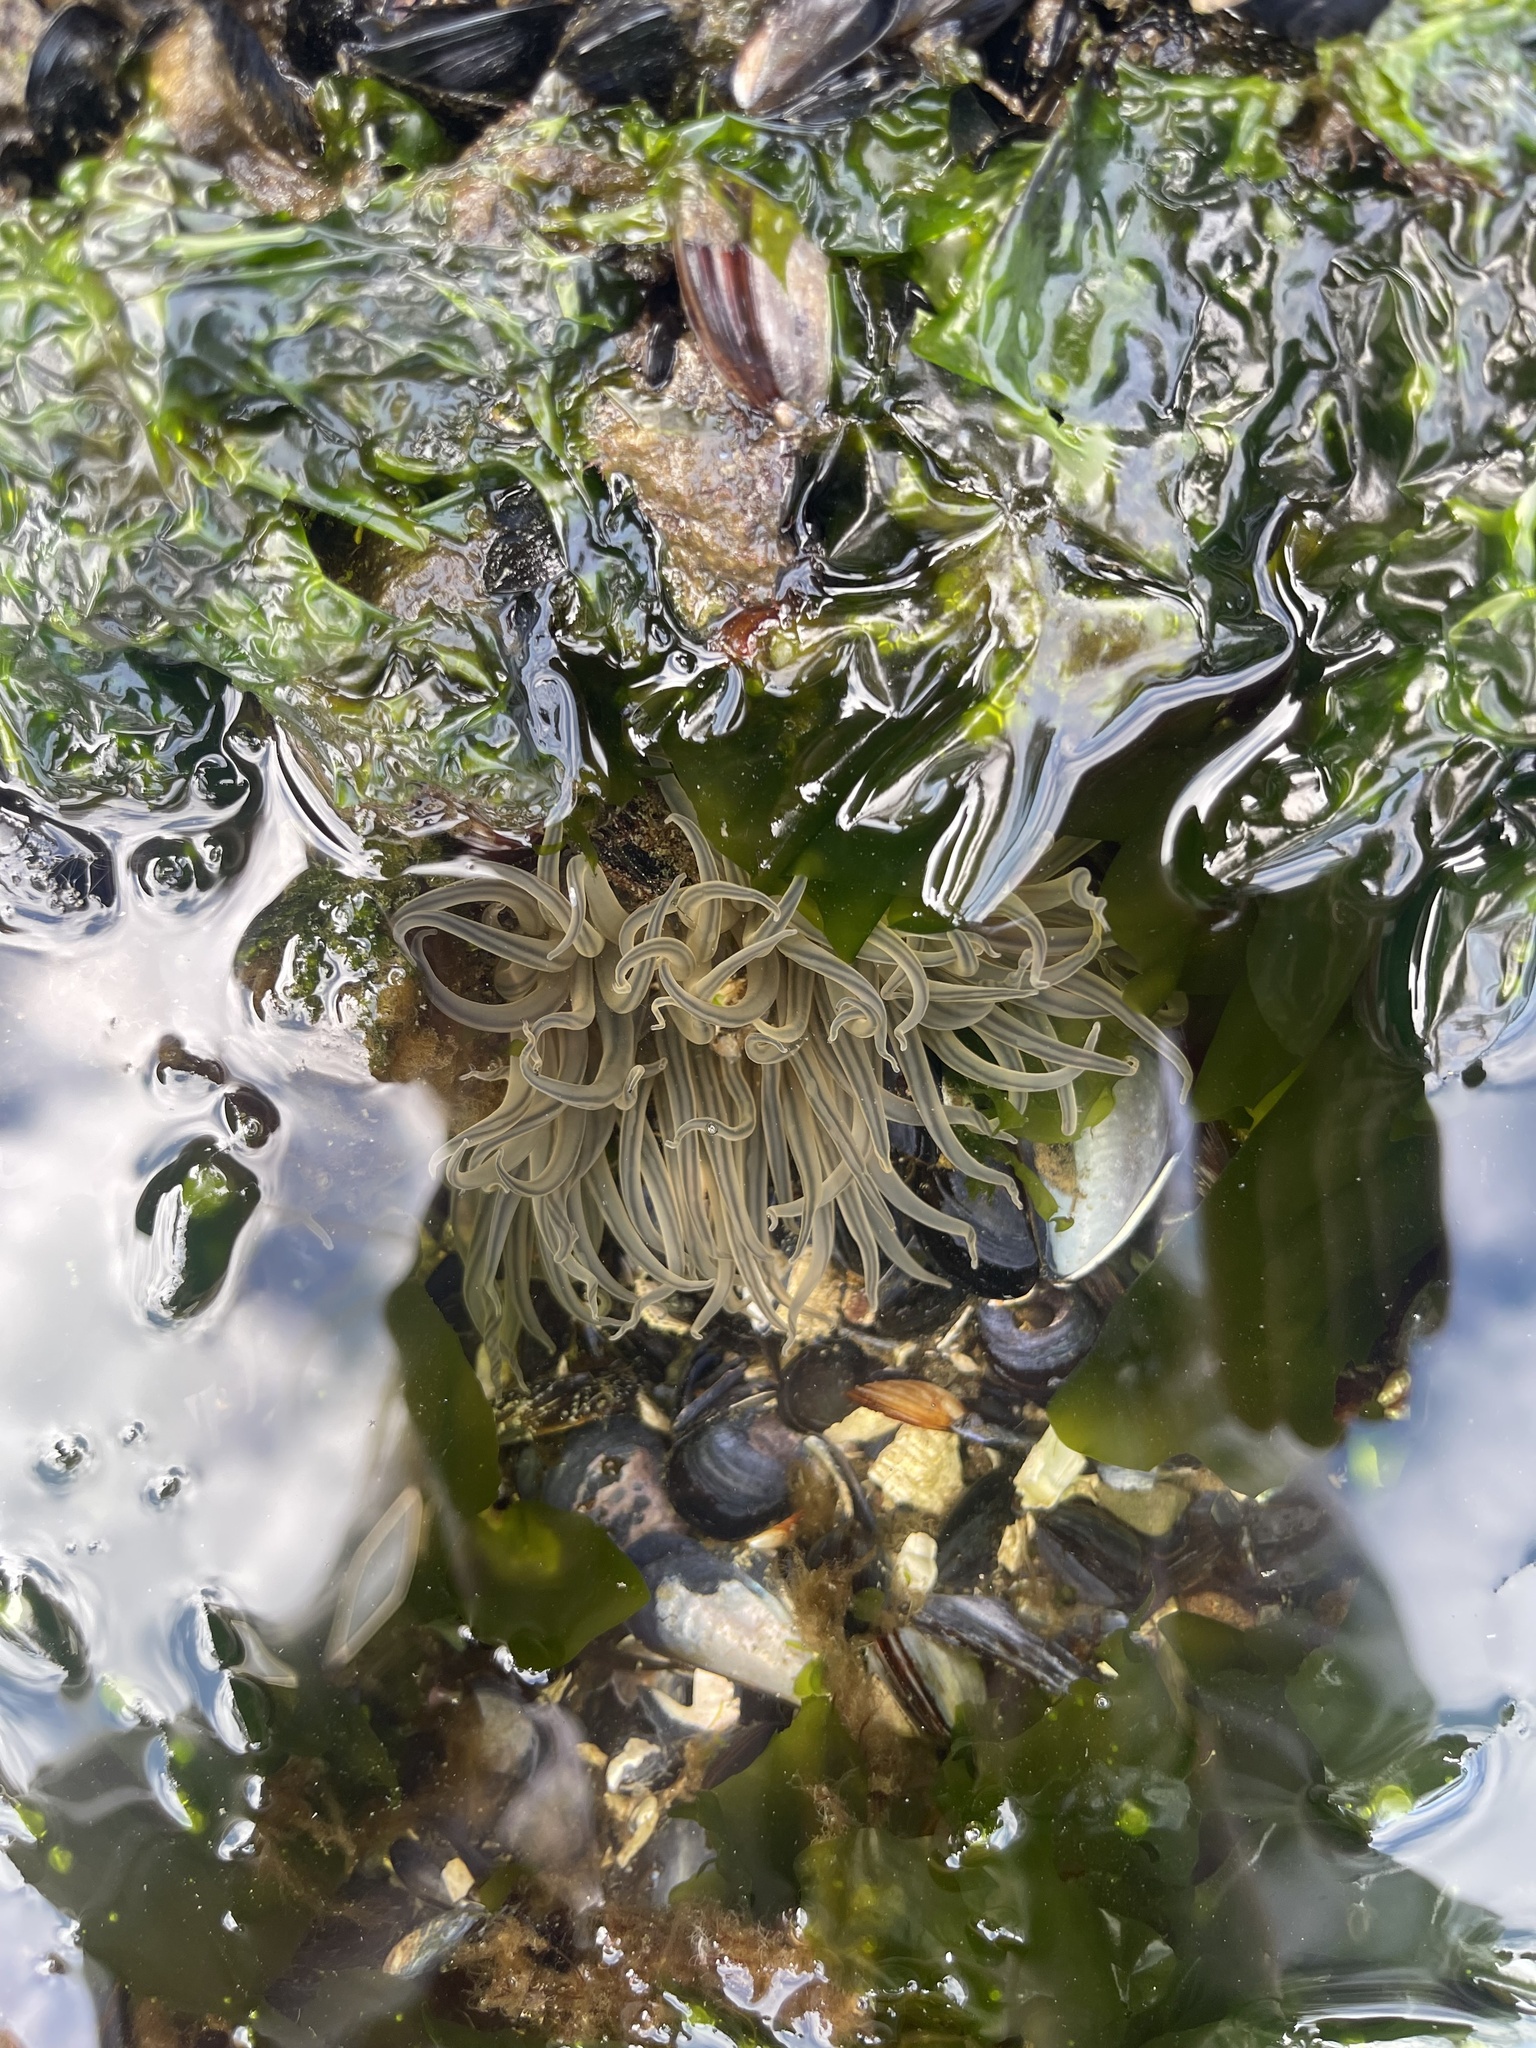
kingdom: Animalia
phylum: Cnidaria
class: Anthozoa
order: Actiniaria
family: Actiniidae
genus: Anthopleura
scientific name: Anthopleura artemisia
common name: Buried sea anemone
